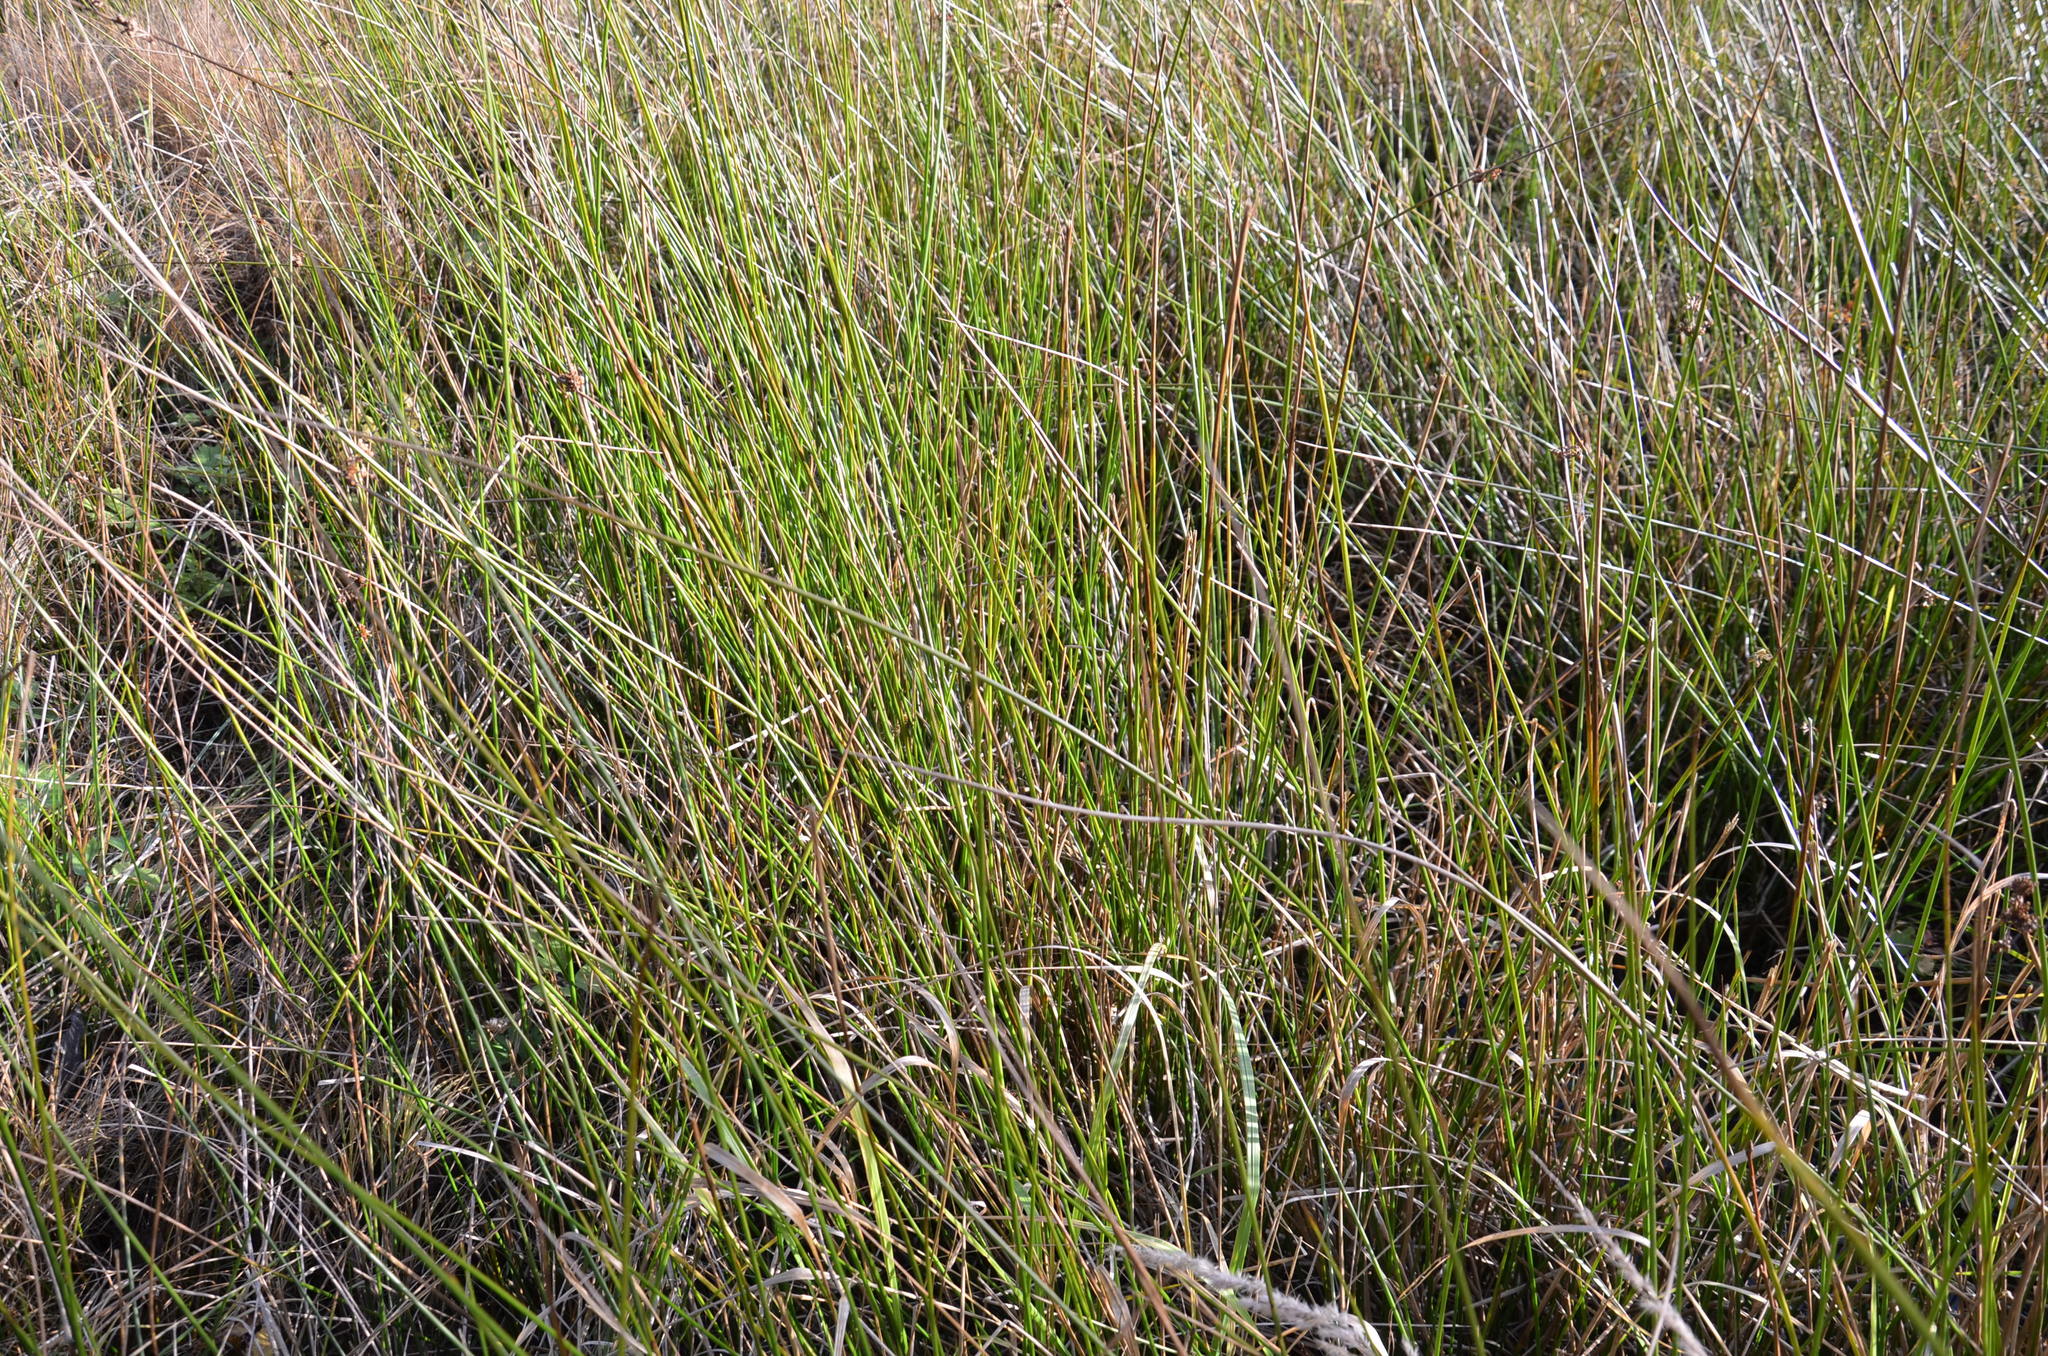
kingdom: Plantae
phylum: Tracheophyta
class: Liliopsida
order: Poales
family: Juncaceae
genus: Juncus
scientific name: Juncus effusus
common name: Soft rush
